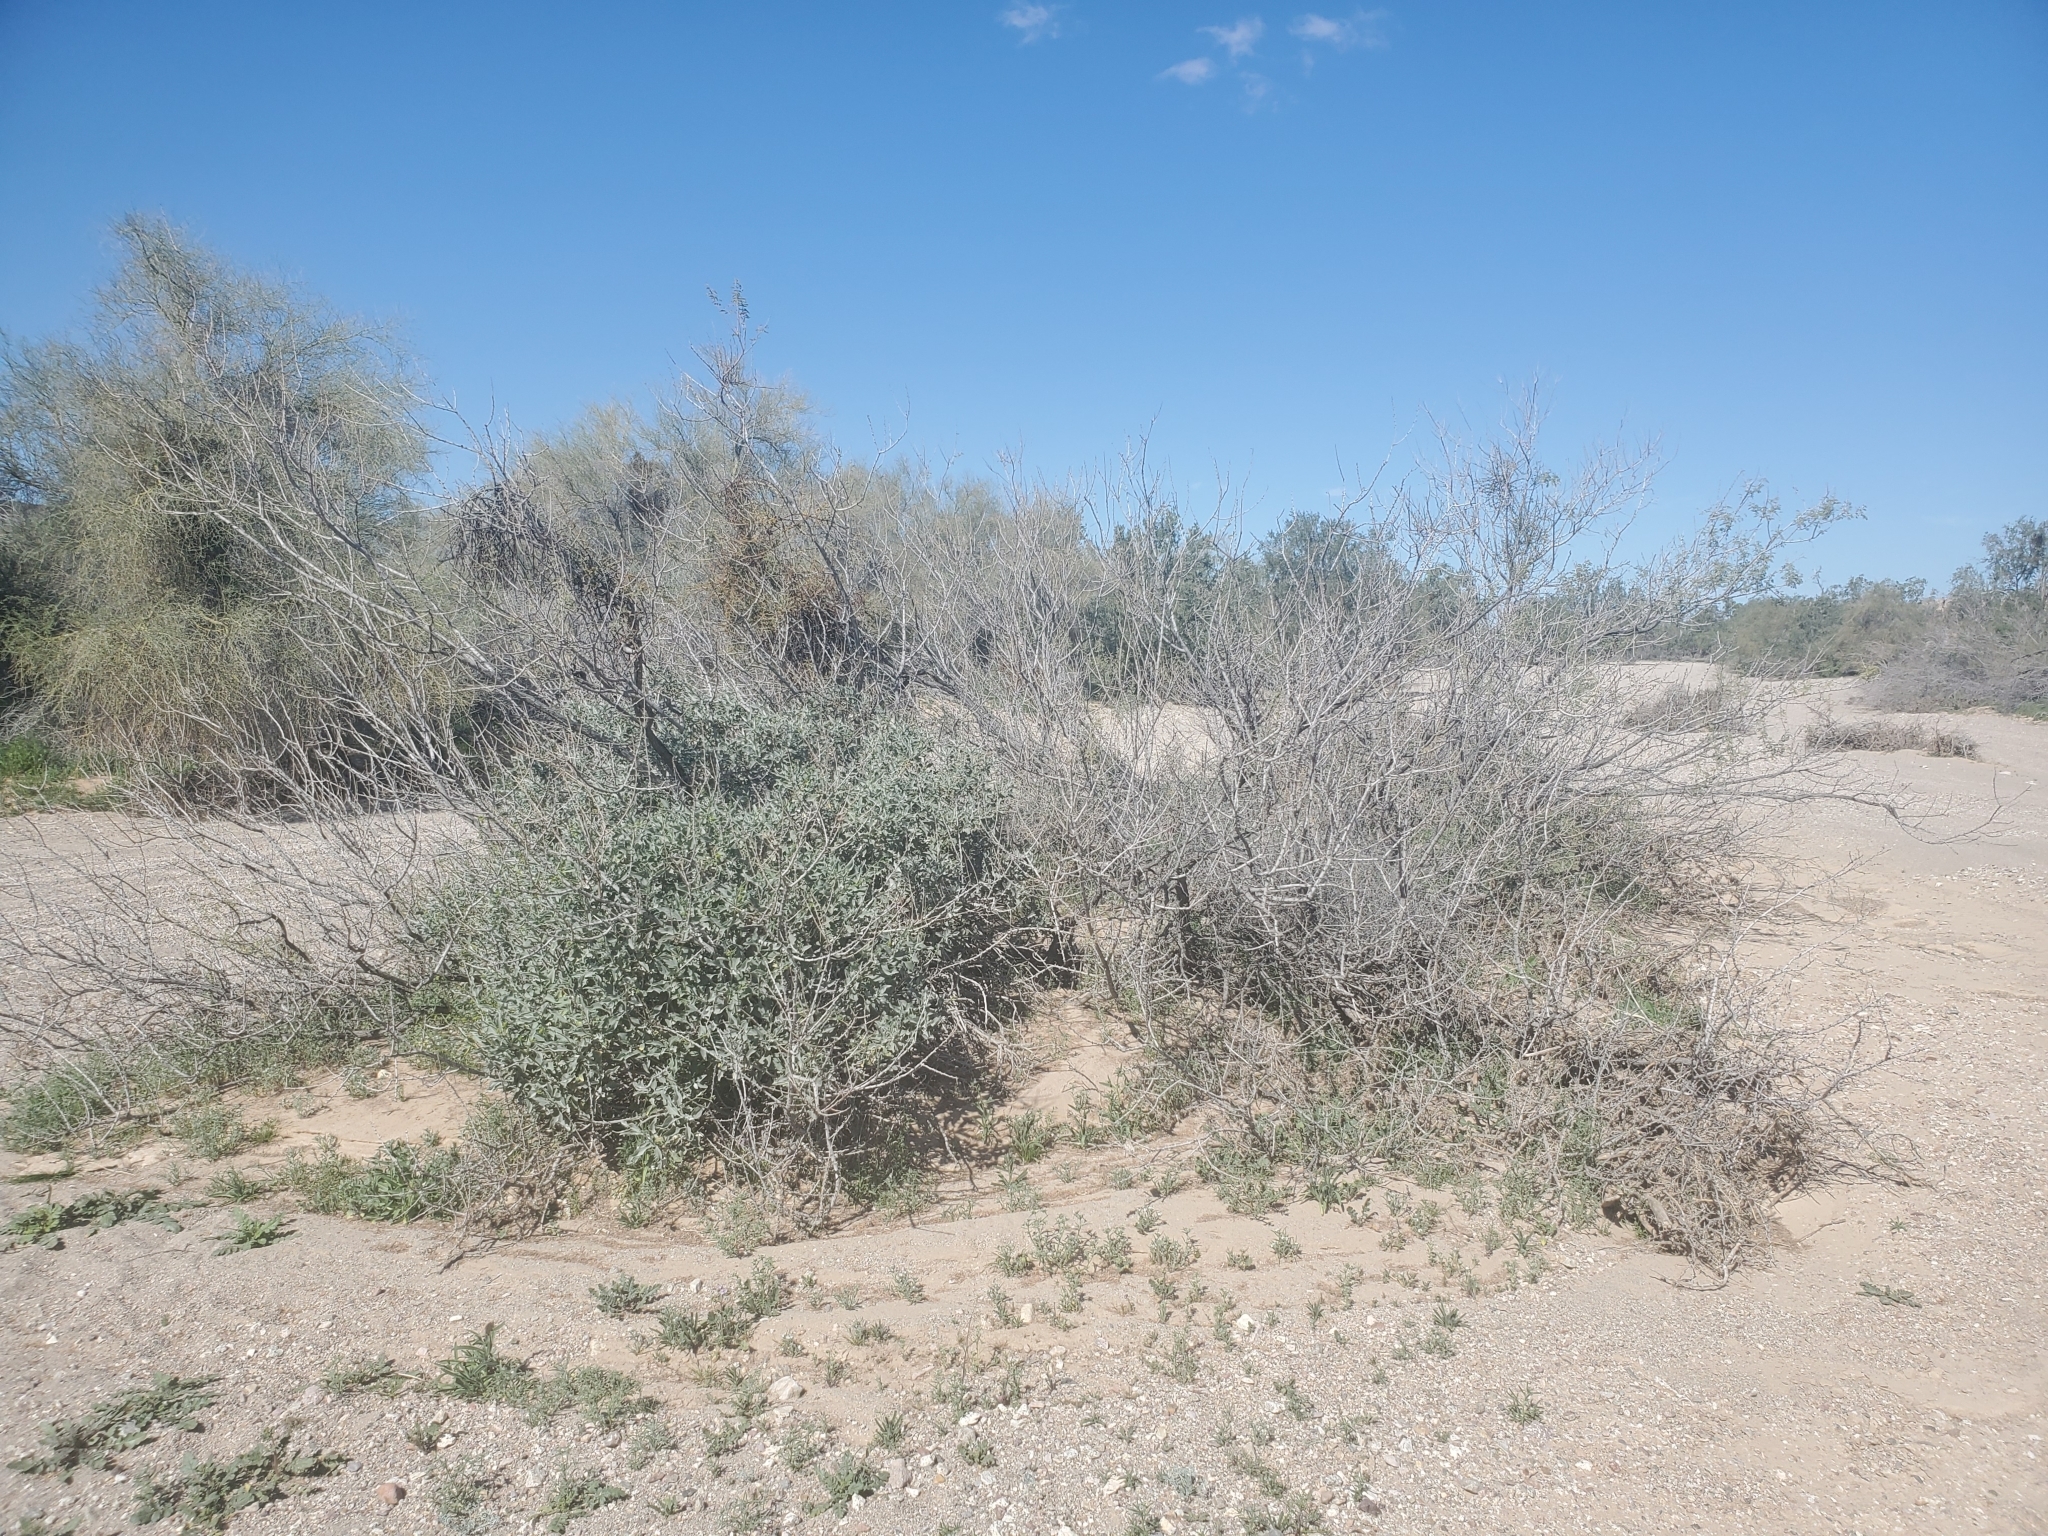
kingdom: Plantae
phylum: Tracheophyta
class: Magnoliopsida
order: Asterales
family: Asteraceae
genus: Encelia
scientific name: Encelia farinosa
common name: Brittlebush
